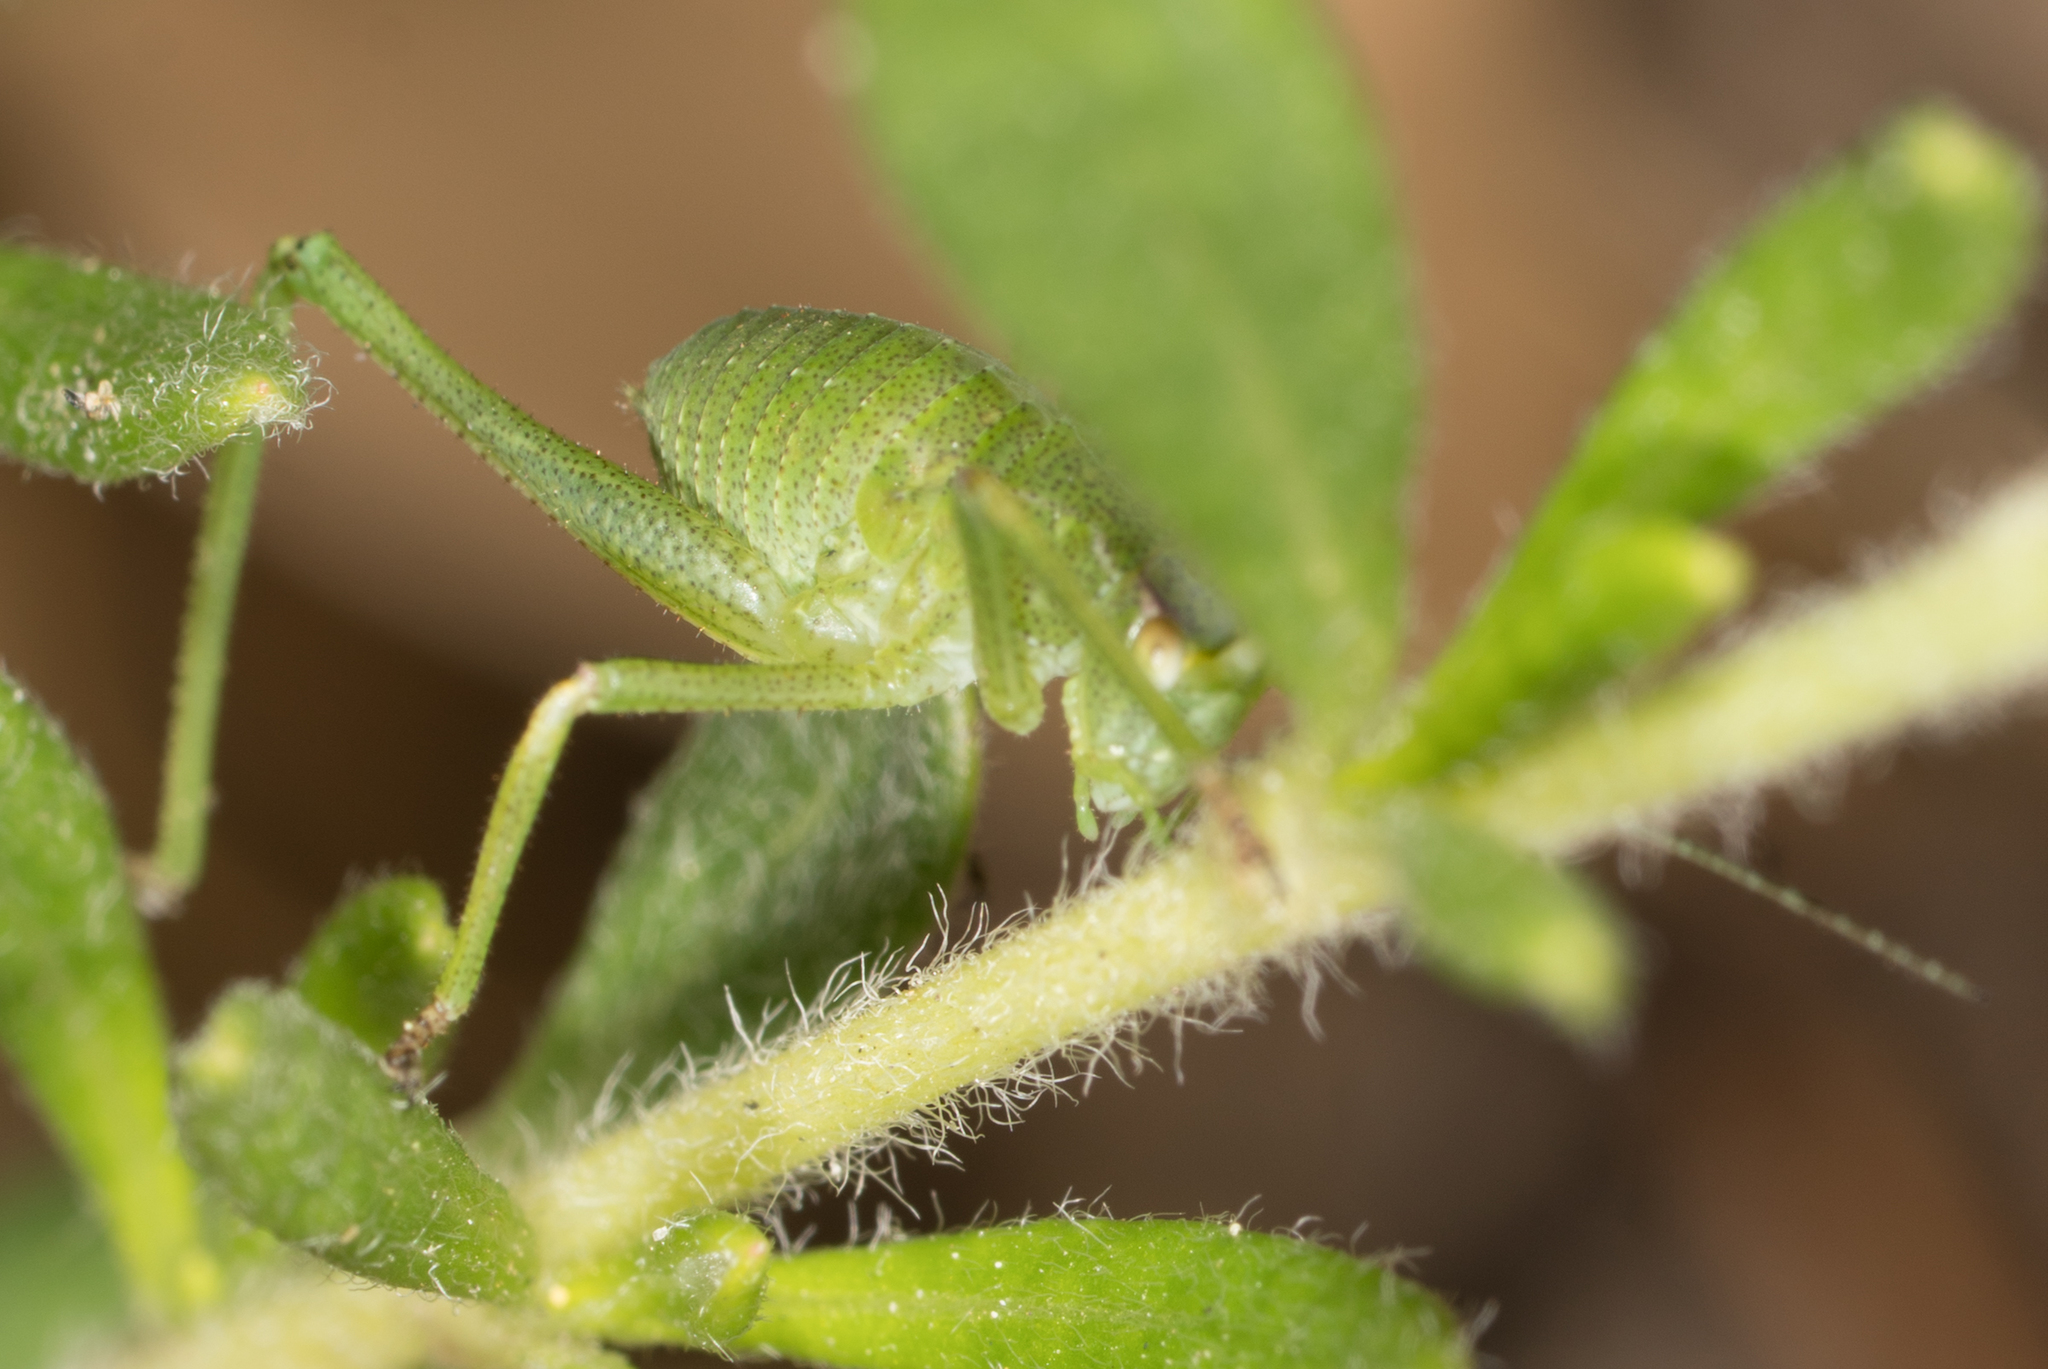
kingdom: Animalia
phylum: Arthropoda
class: Insecta
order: Orthoptera
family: Tettigoniidae
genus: Platylyra
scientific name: Platylyra californica
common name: Chaparral false katydid
